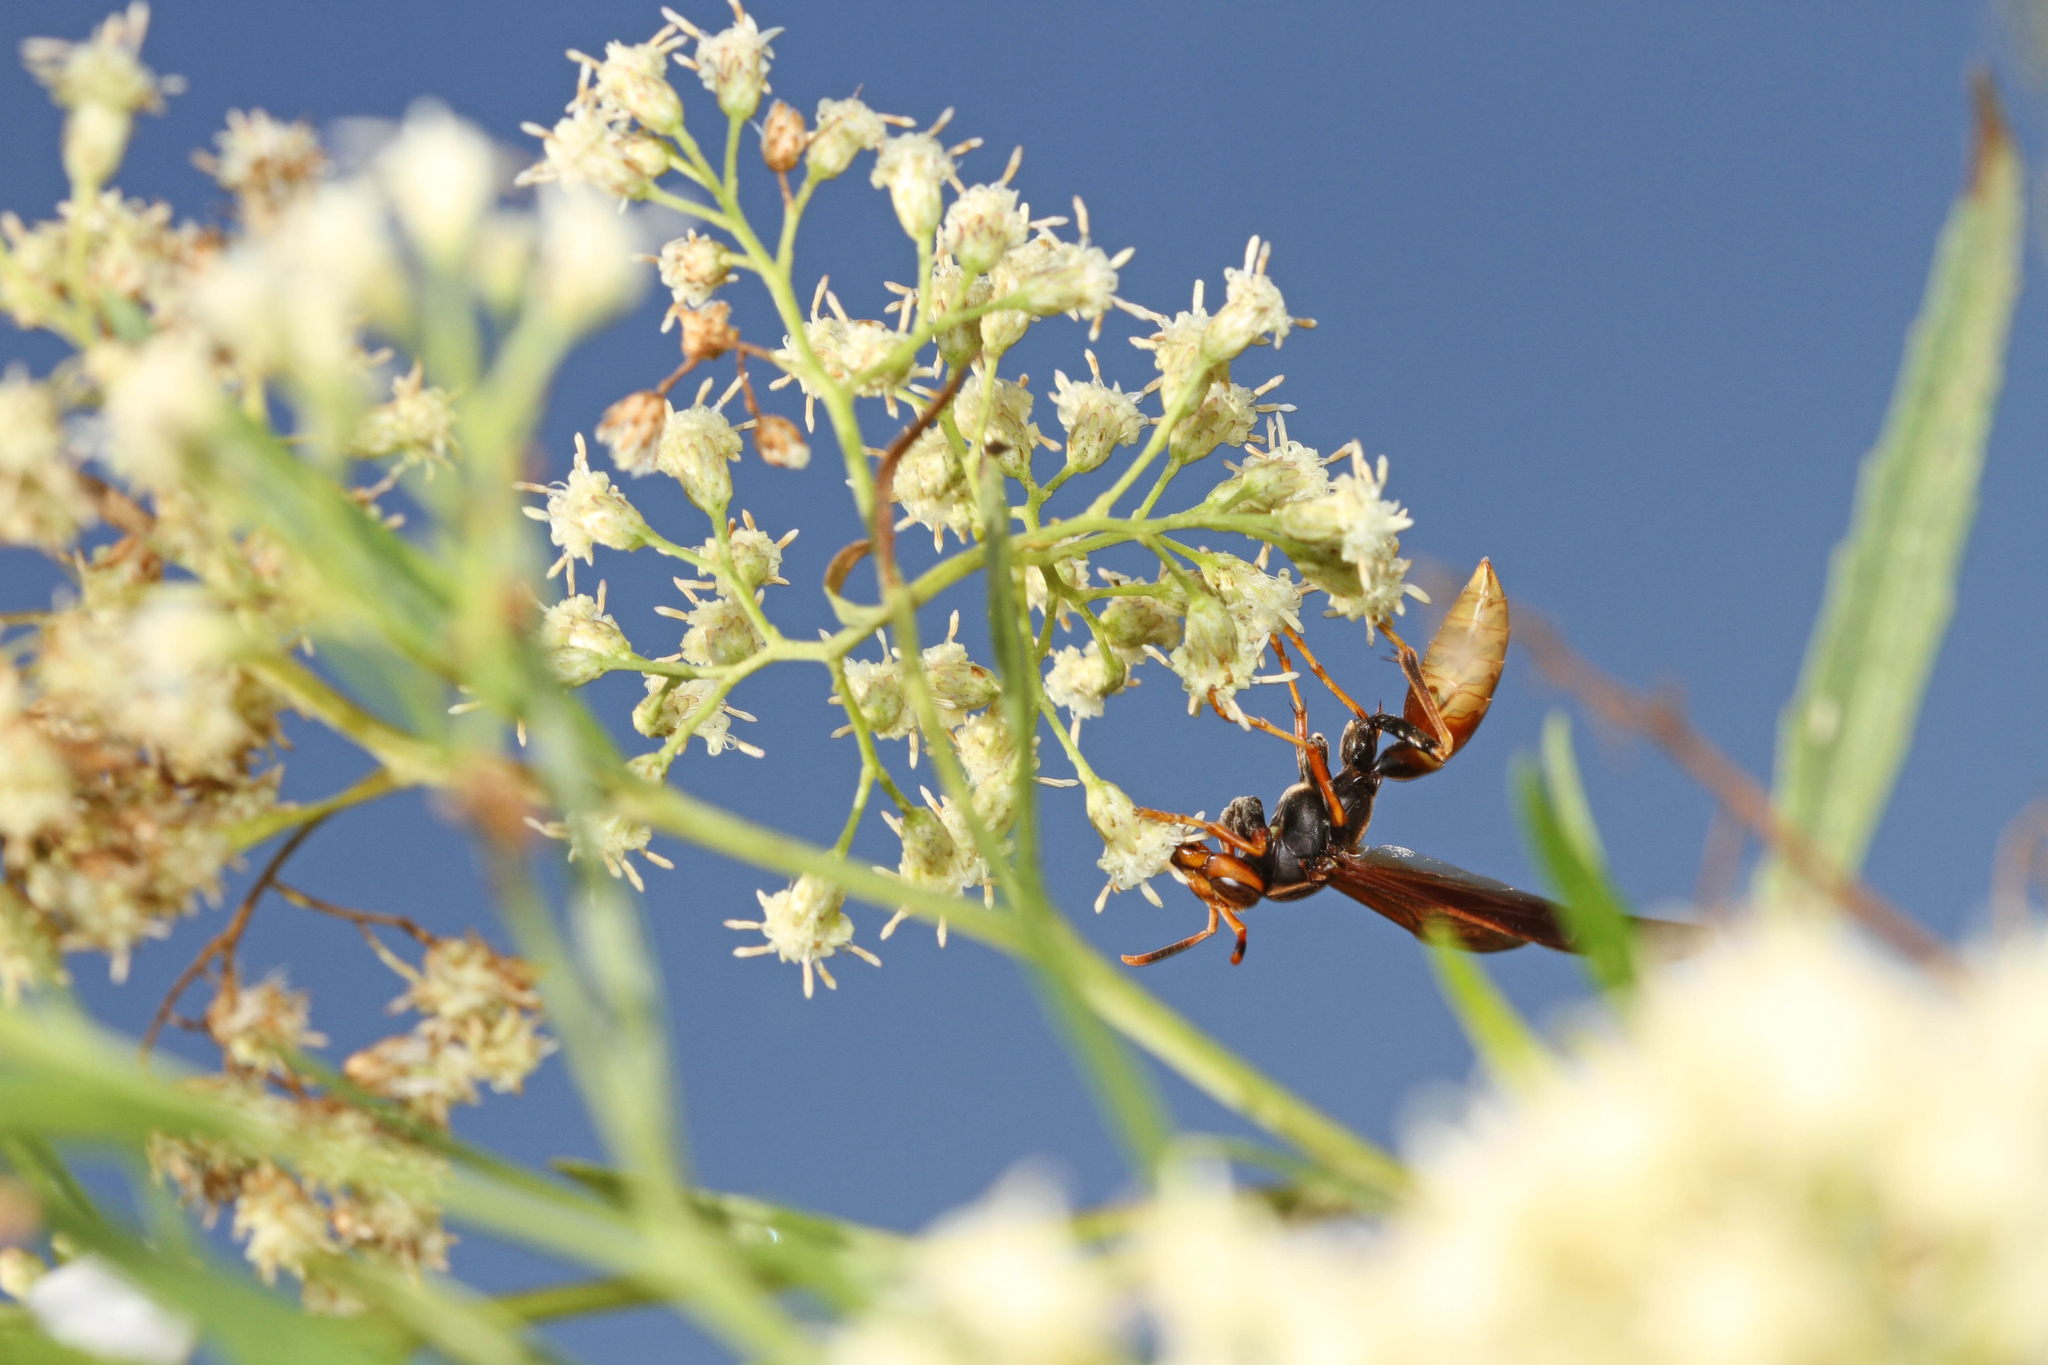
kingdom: Animalia
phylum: Arthropoda
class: Insecta
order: Hymenoptera
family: Eumenidae
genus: Polistes
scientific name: Polistes comanchus
